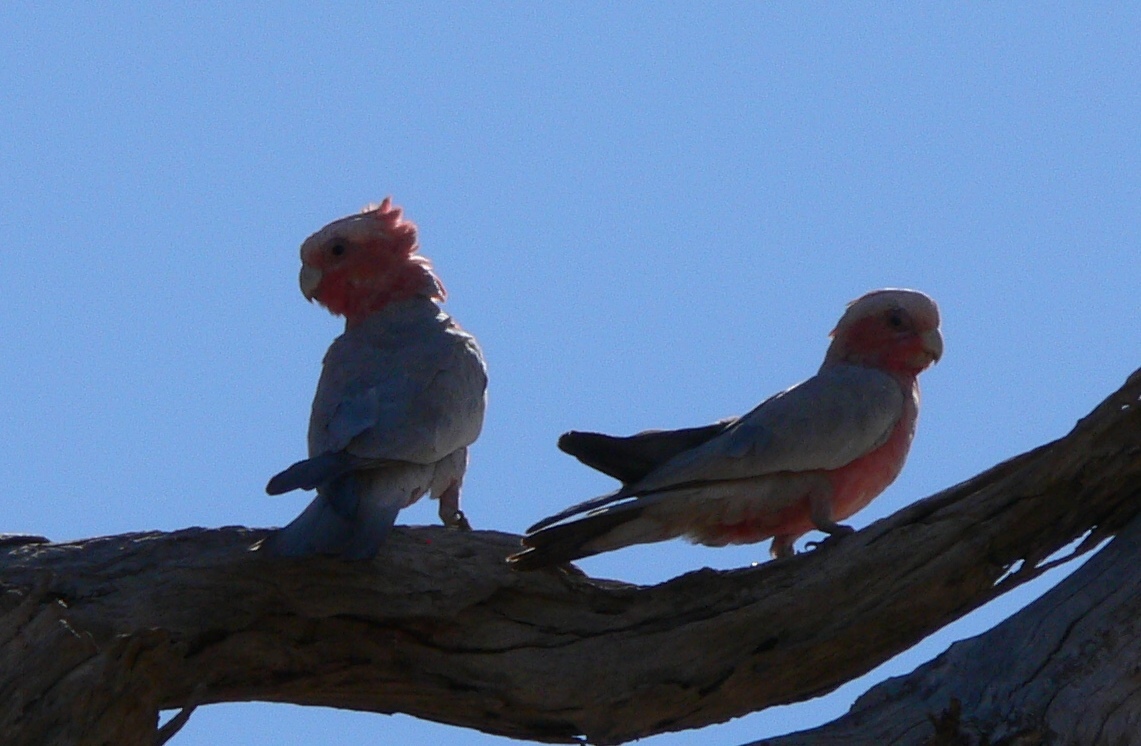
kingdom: Animalia
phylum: Chordata
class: Aves
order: Psittaciformes
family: Psittacidae
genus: Eolophus
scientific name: Eolophus roseicapilla
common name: Galah
